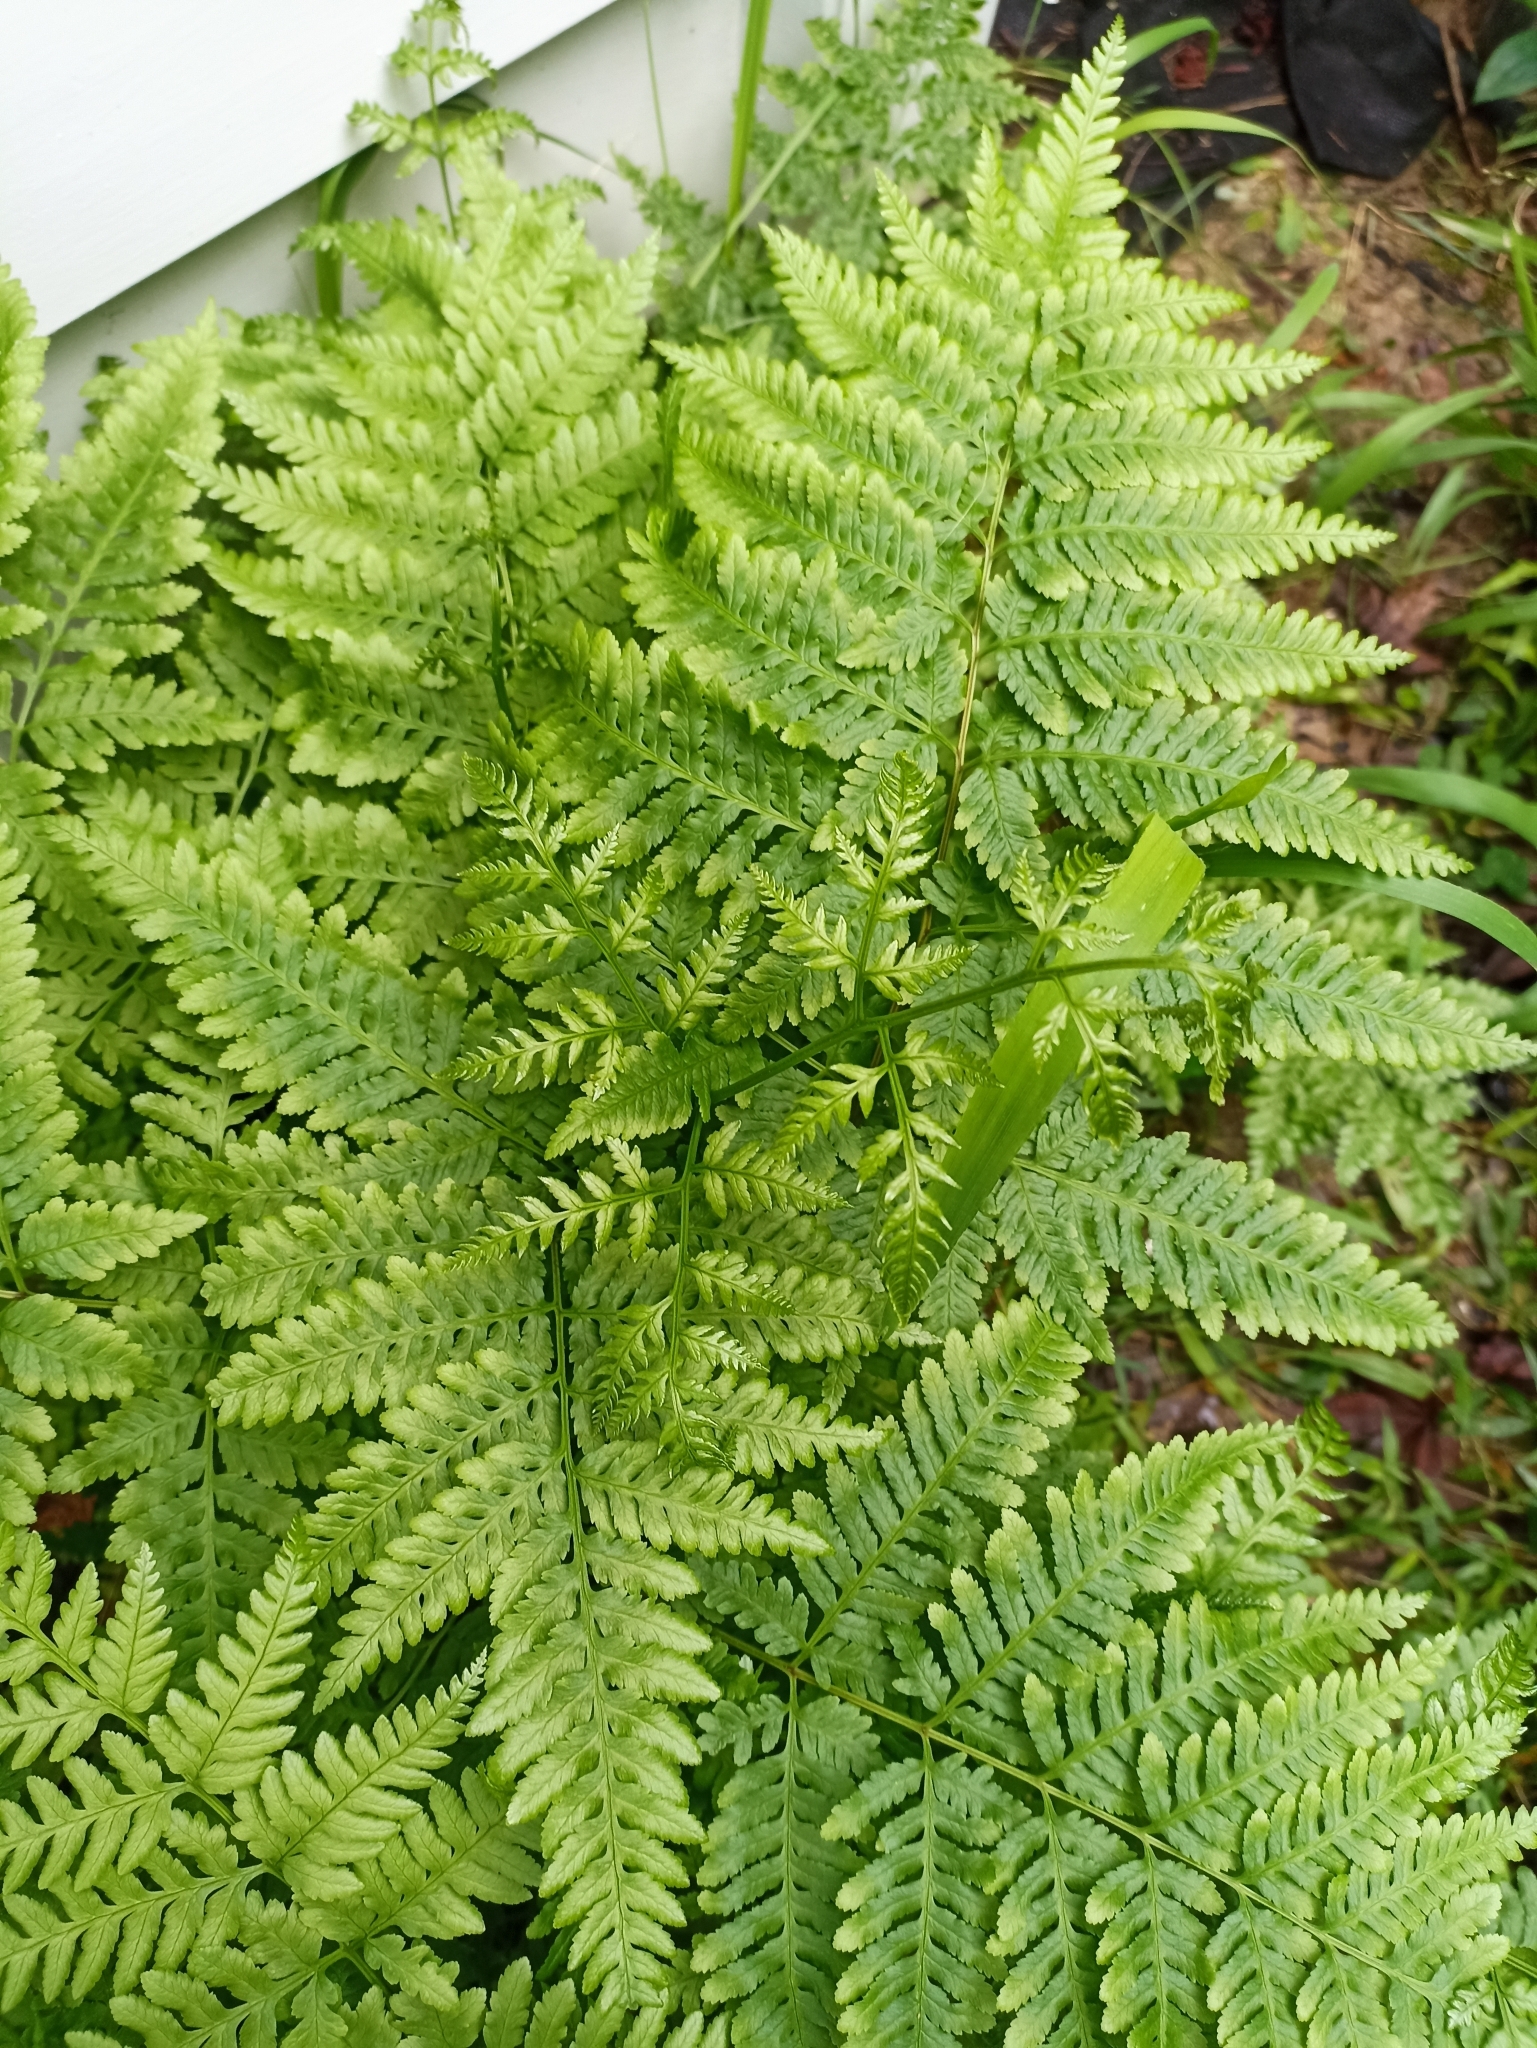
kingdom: Plantae
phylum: Tracheophyta
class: Polypodiopsida
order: Polypodiales
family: Pteridaceae
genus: Pteris
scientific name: Pteris tremula
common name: Australian brake
